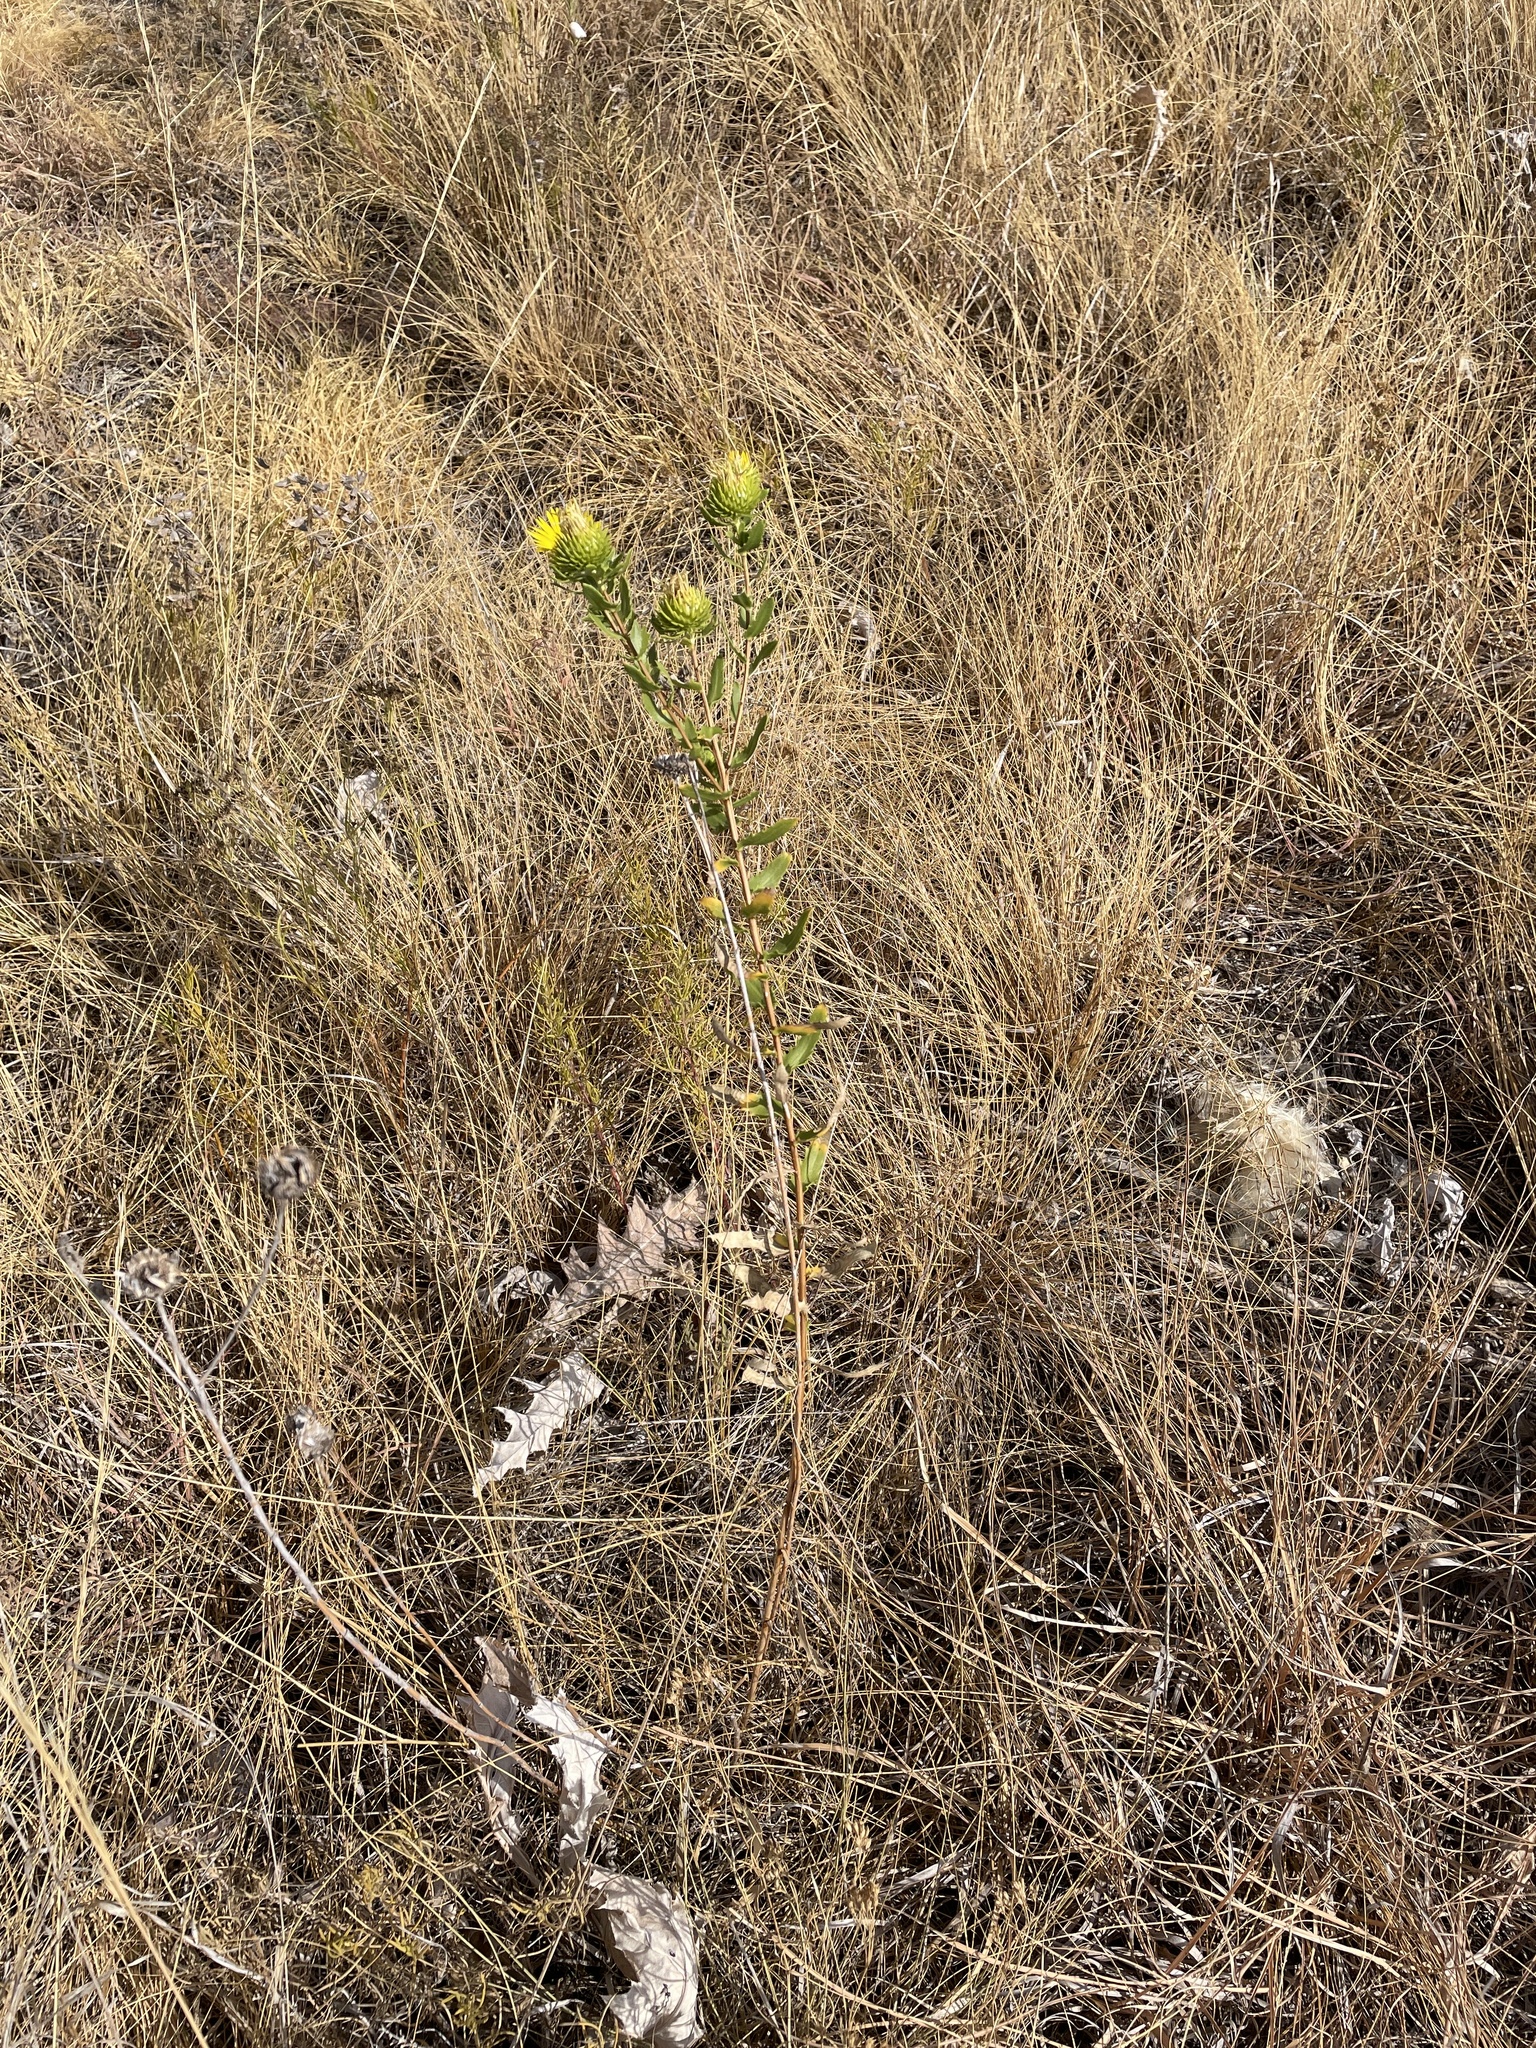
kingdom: Plantae
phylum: Tracheophyta
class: Magnoliopsida
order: Asterales
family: Asteraceae
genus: Grindelia
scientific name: Grindelia lanceolata
